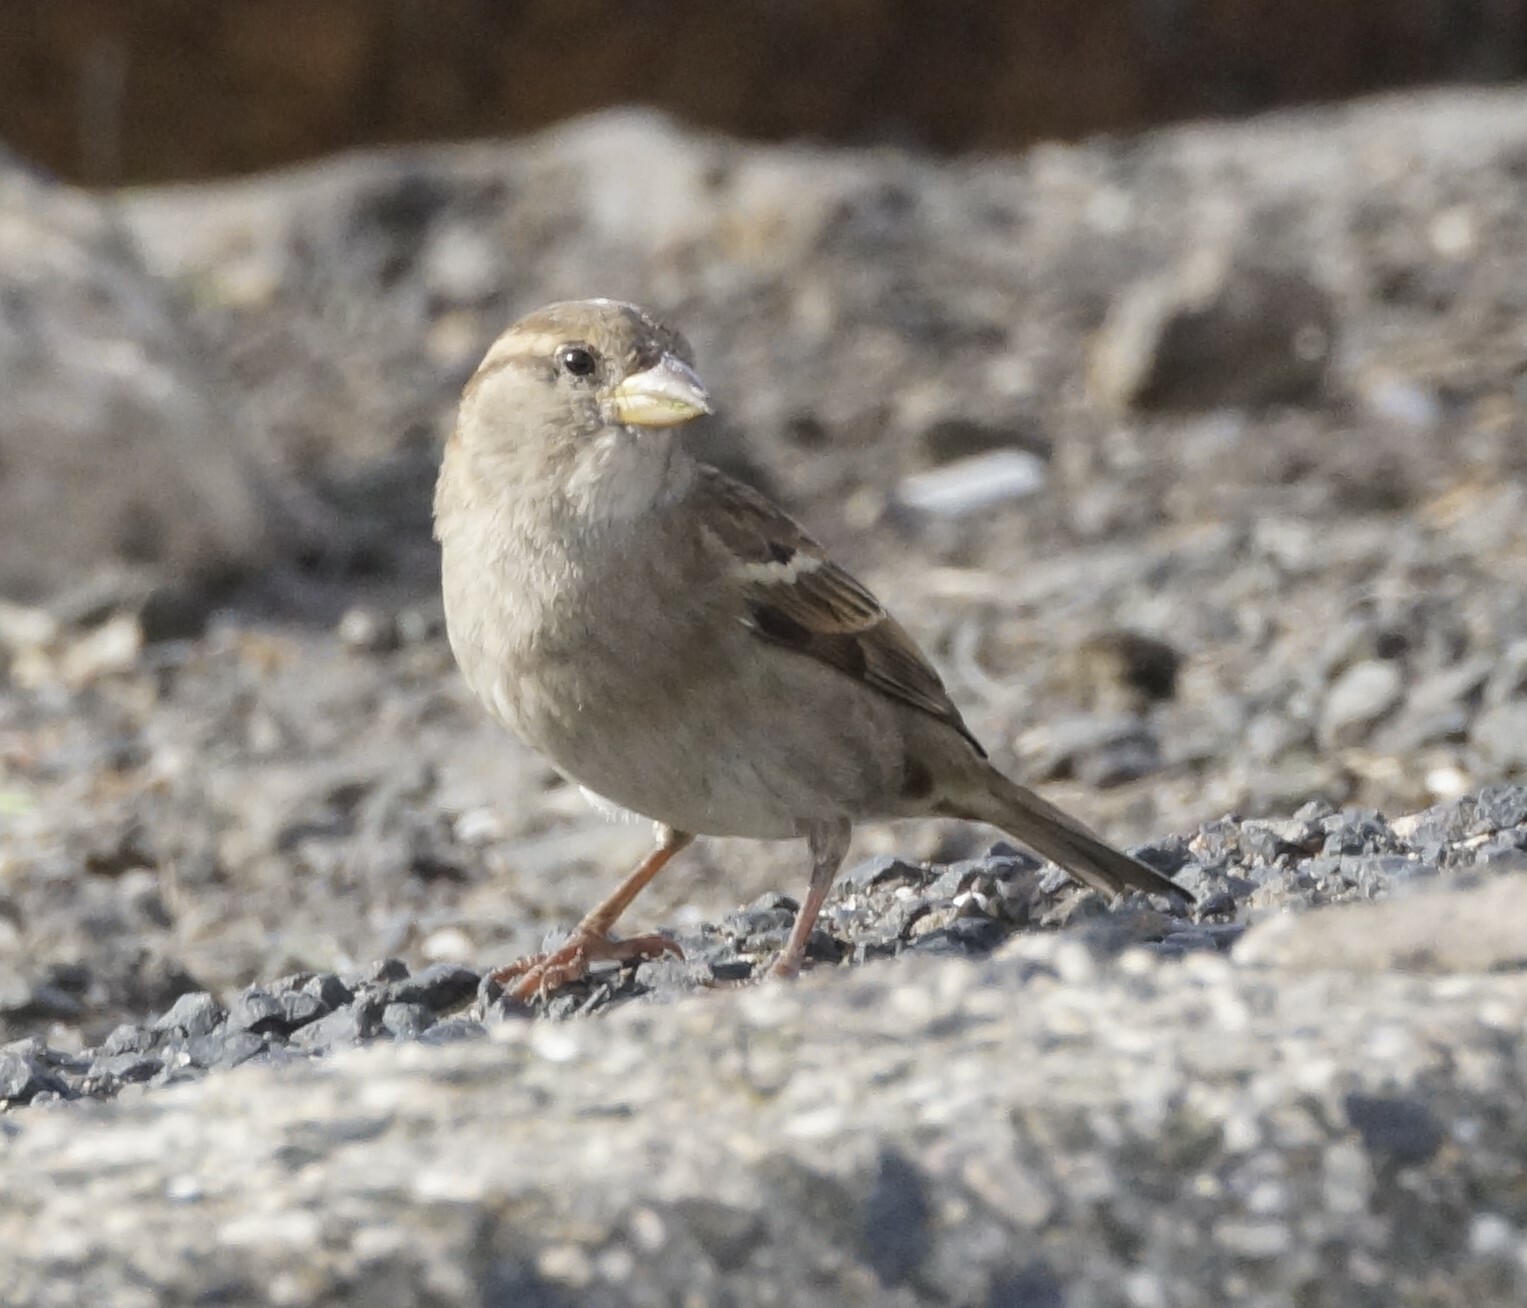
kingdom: Animalia
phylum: Chordata
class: Aves
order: Passeriformes
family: Passeridae
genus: Passer
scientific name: Passer domesticus
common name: House sparrow
